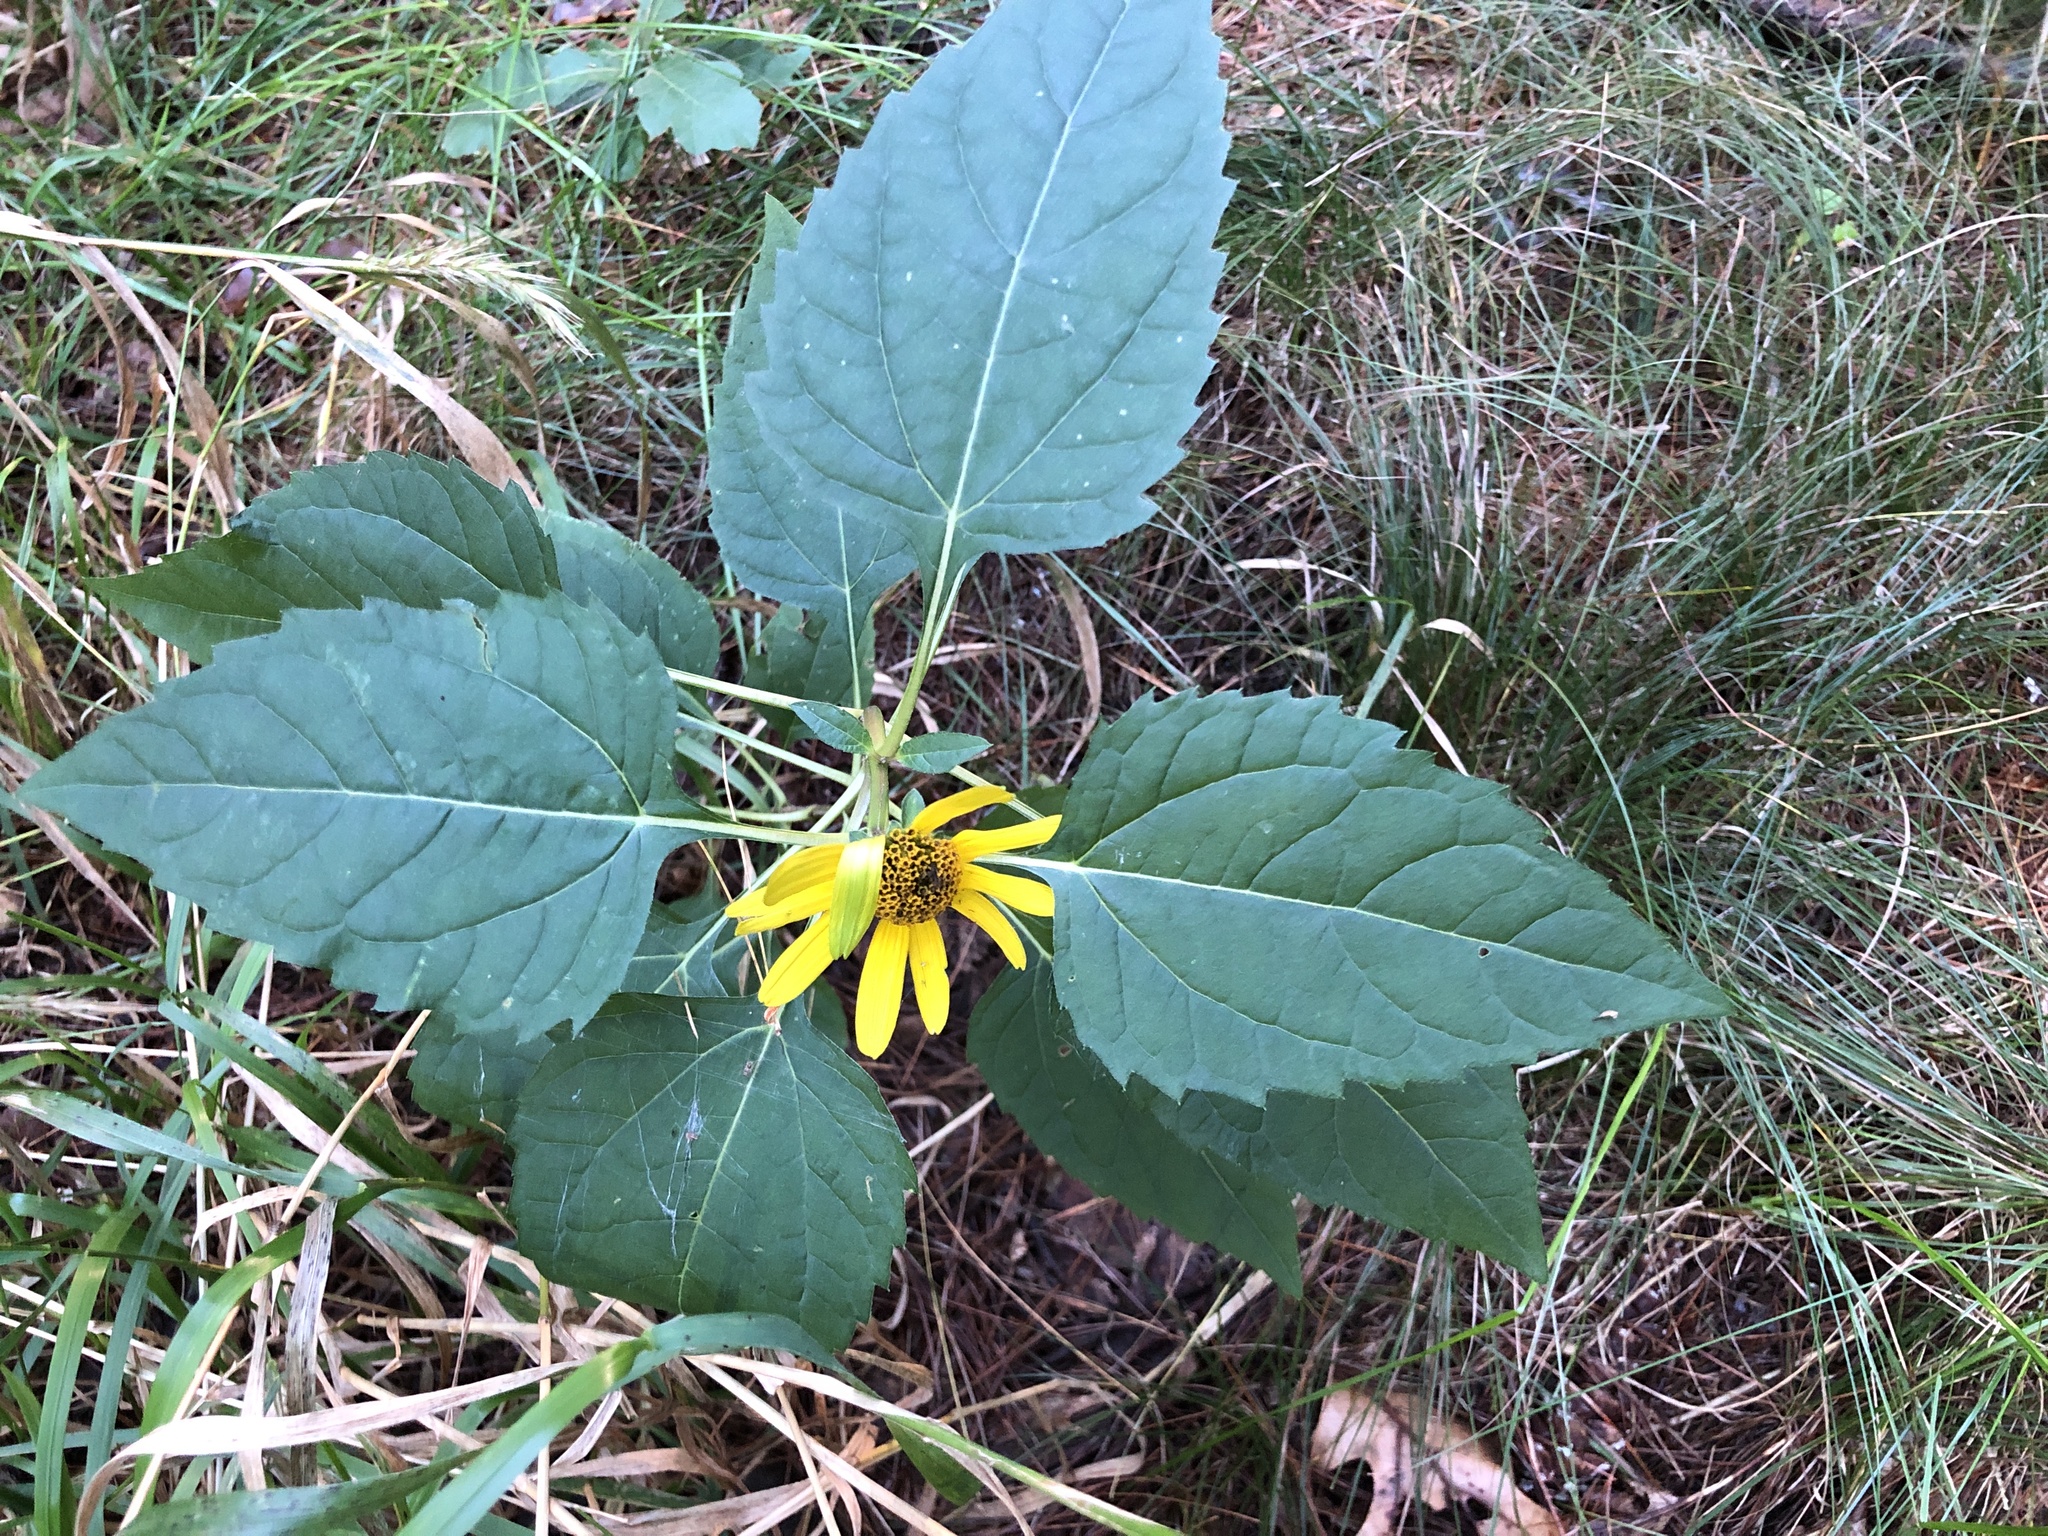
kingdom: Plantae
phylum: Tracheophyta
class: Magnoliopsida
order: Asterales
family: Asteraceae
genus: Helianthus
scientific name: Helianthus tuberosus
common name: Jerusalem artichoke
